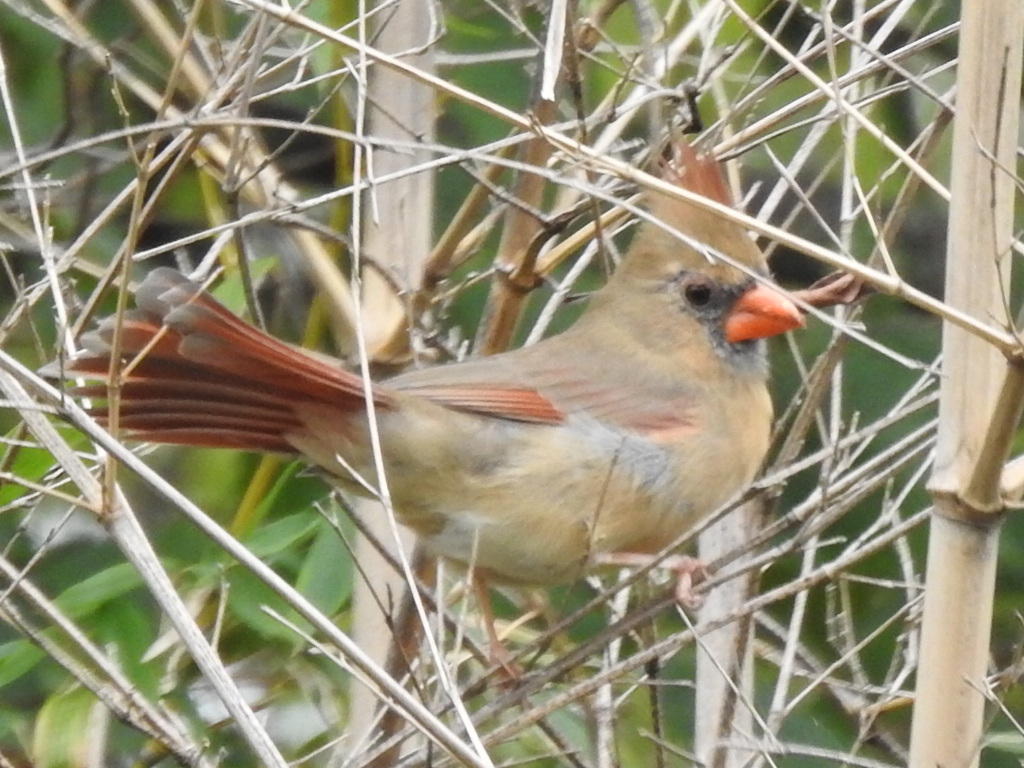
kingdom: Animalia
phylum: Chordata
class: Aves
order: Passeriformes
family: Cardinalidae
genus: Cardinalis
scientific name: Cardinalis cardinalis
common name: Northern cardinal
